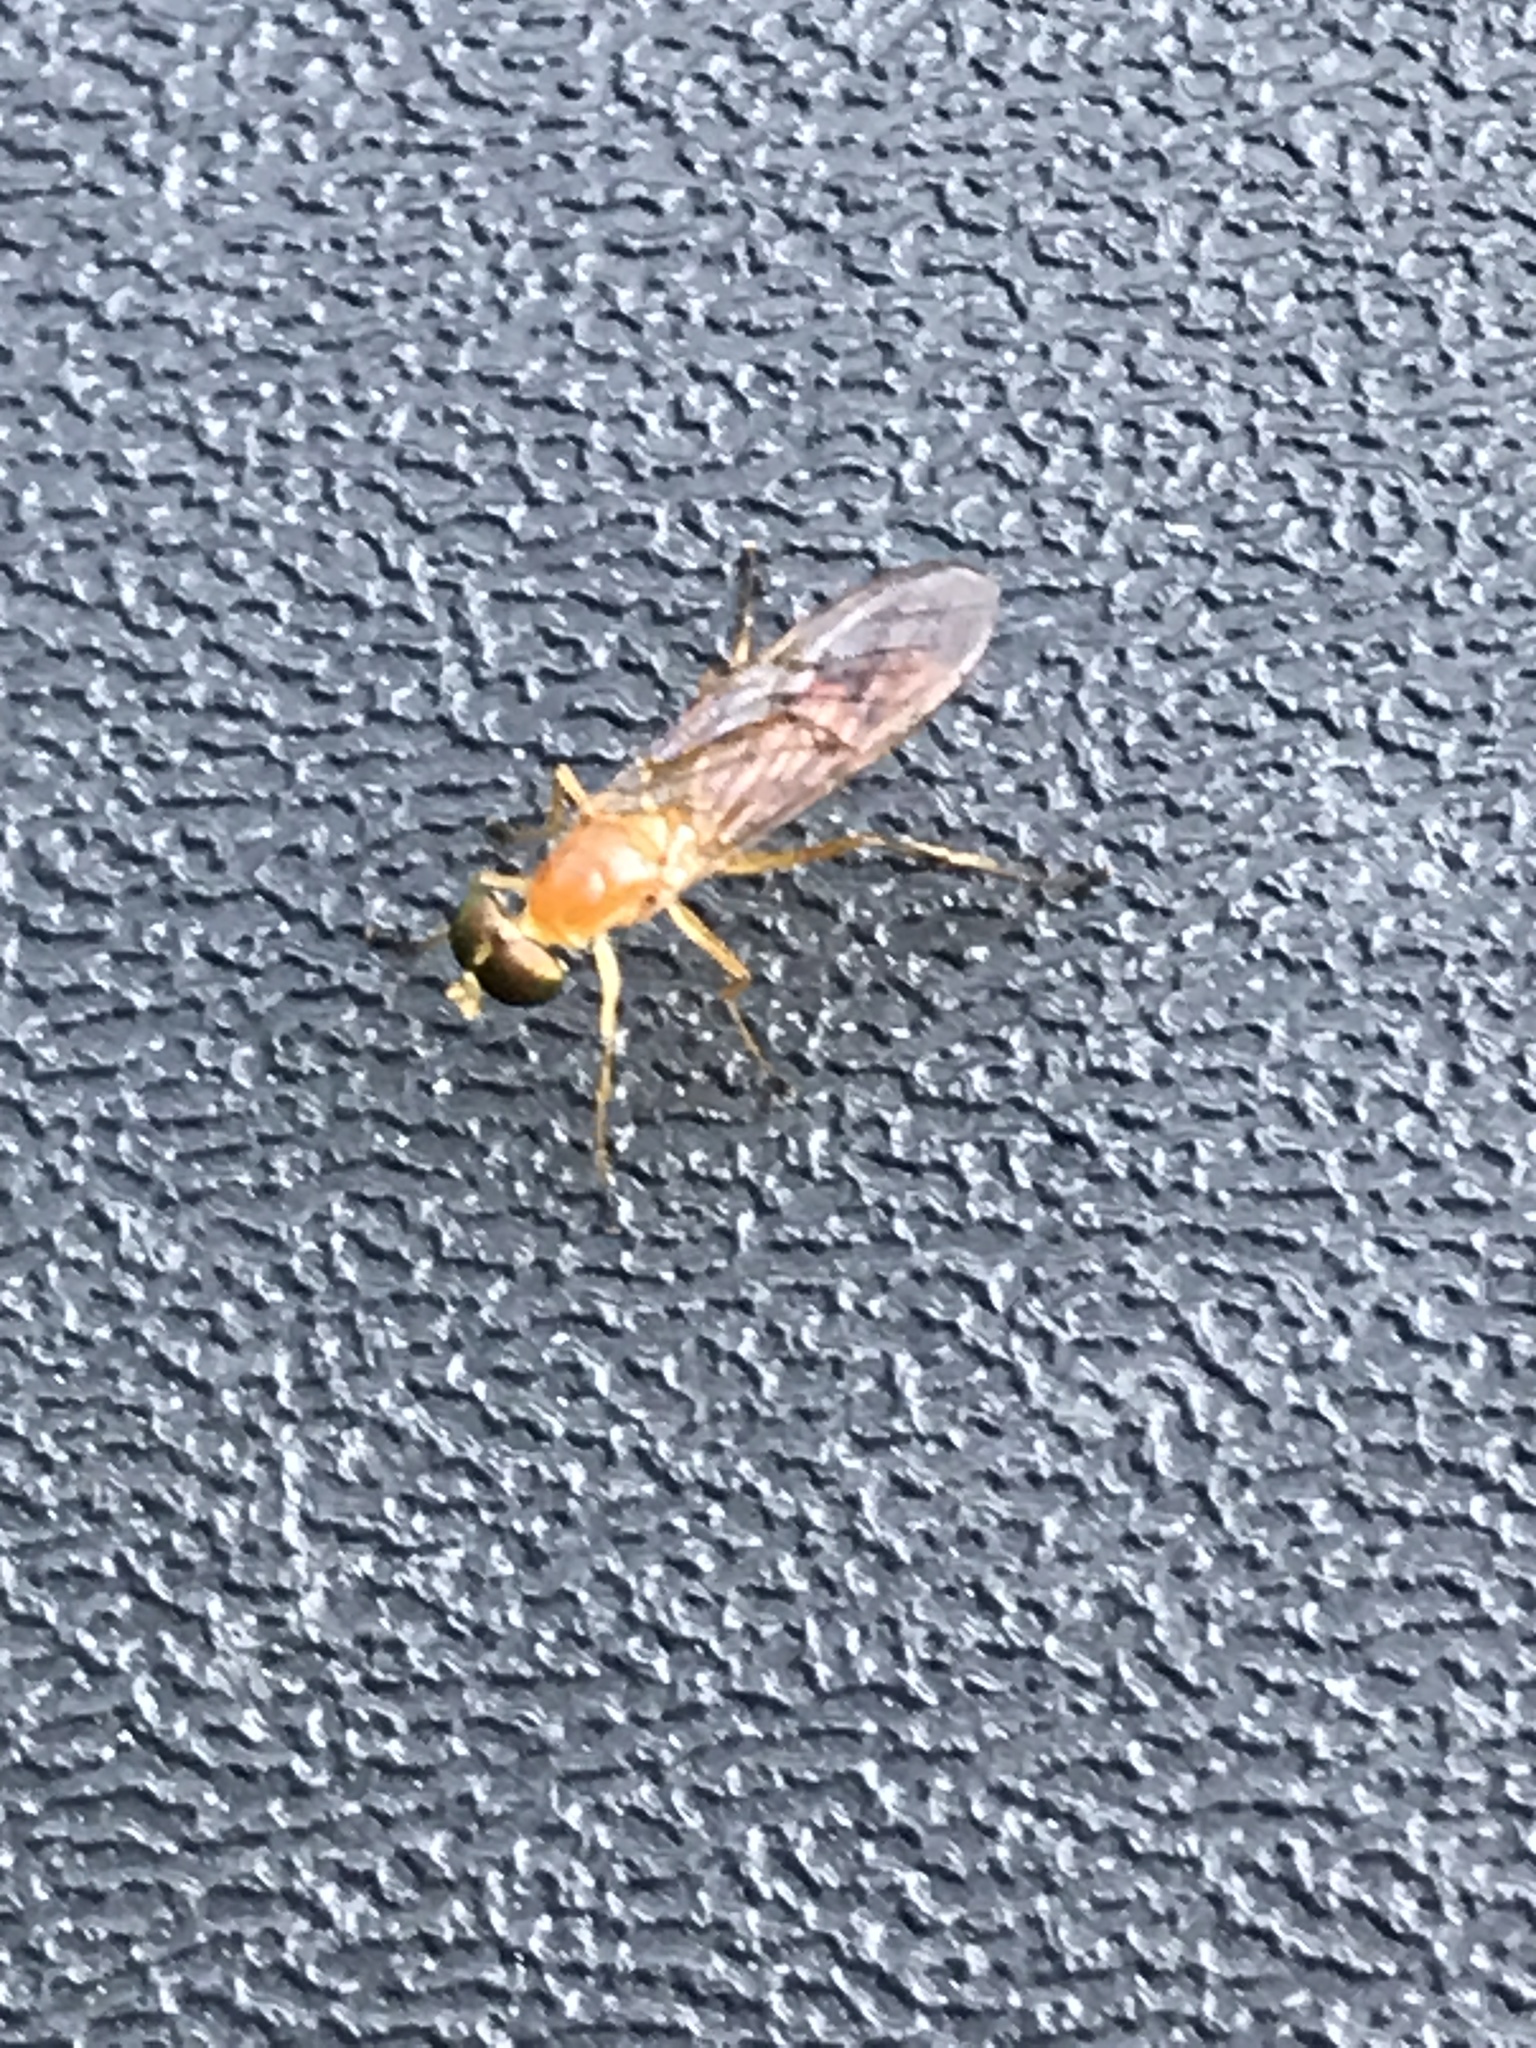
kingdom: Animalia
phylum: Arthropoda
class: Insecta
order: Diptera
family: Stratiomyidae
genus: Ptecticus
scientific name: Ptecticus trivittatus
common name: Compost fly
